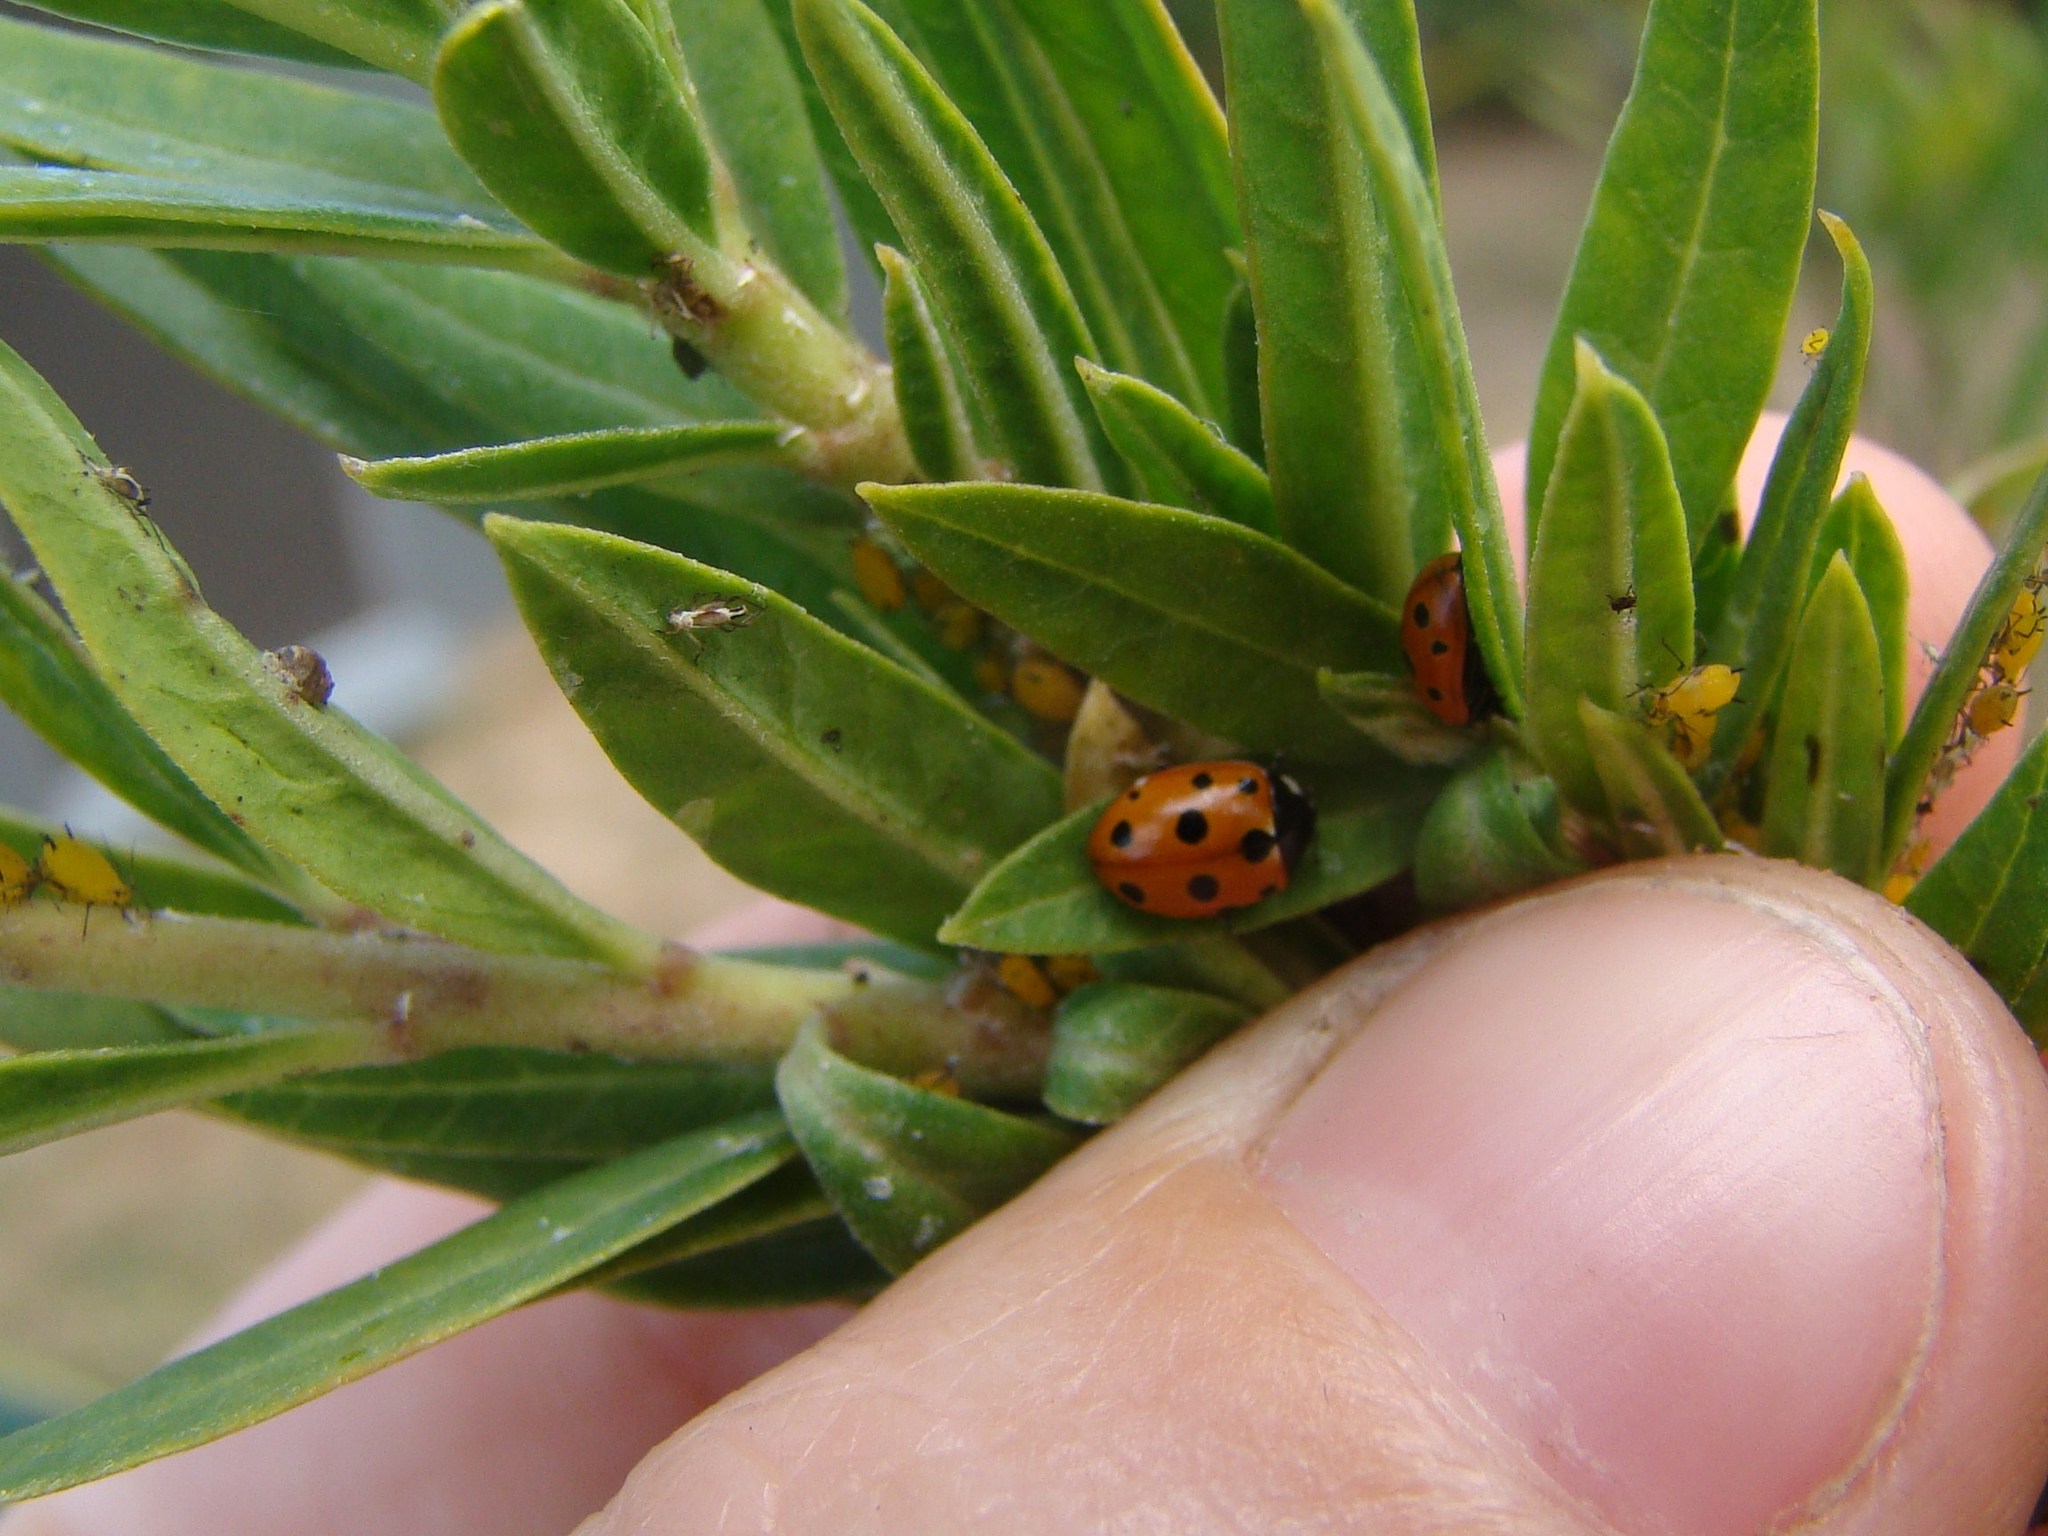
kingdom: Animalia
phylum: Arthropoda
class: Insecta
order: Coleoptera
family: Coccinellidae
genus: Coccinella
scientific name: Coccinella undecimpunctata
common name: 11-spot ladybird
